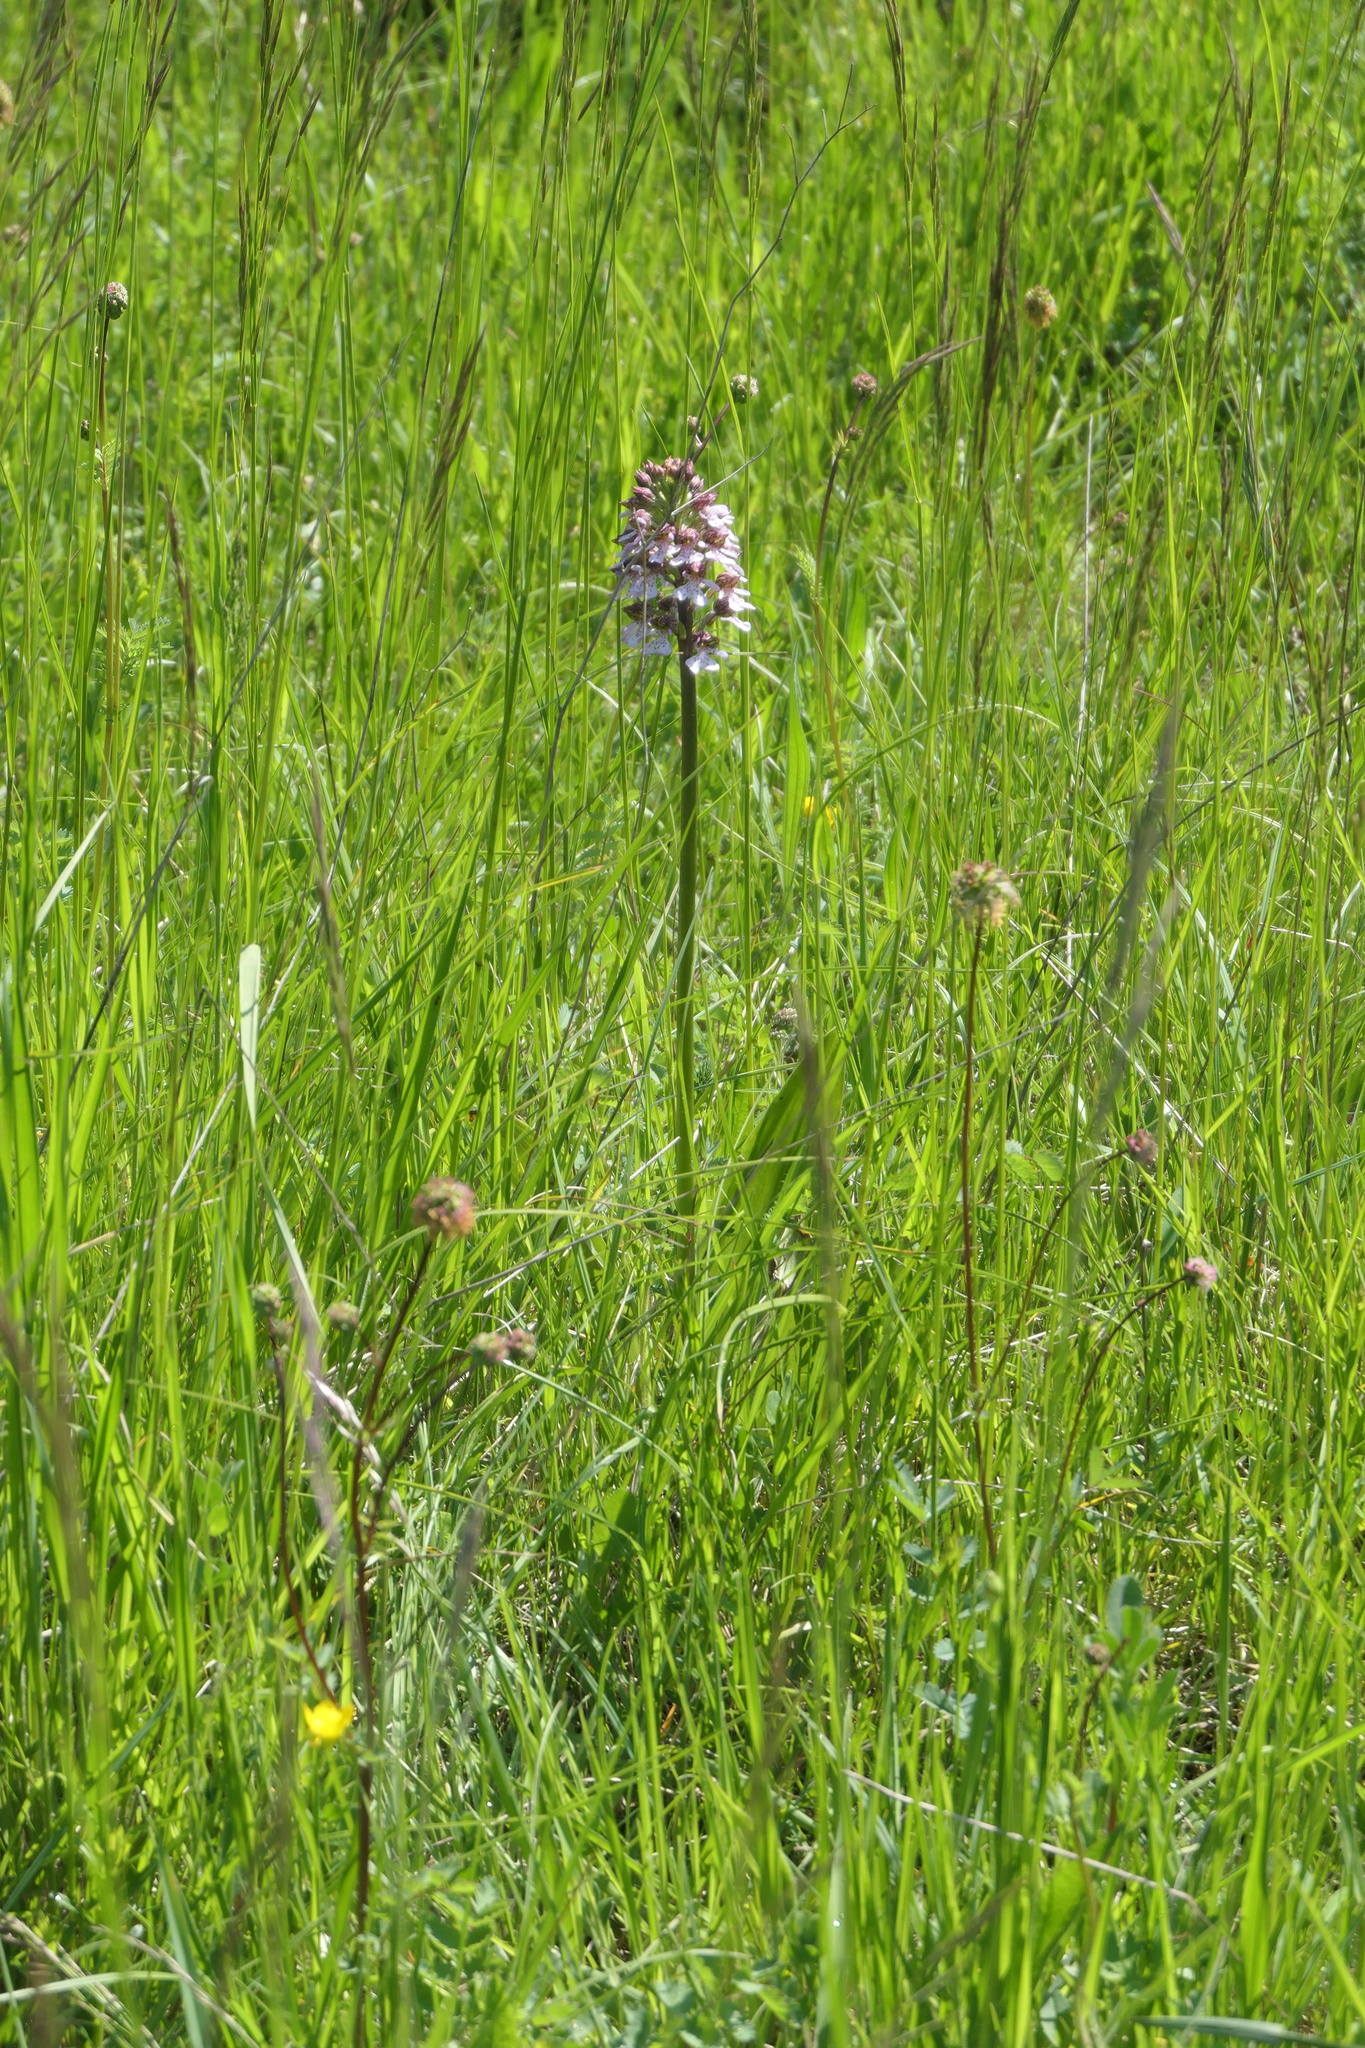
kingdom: Plantae
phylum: Tracheophyta
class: Liliopsida
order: Asparagales
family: Orchidaceae
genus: Orchis
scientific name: Orchis purpurea
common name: Lady orchid
